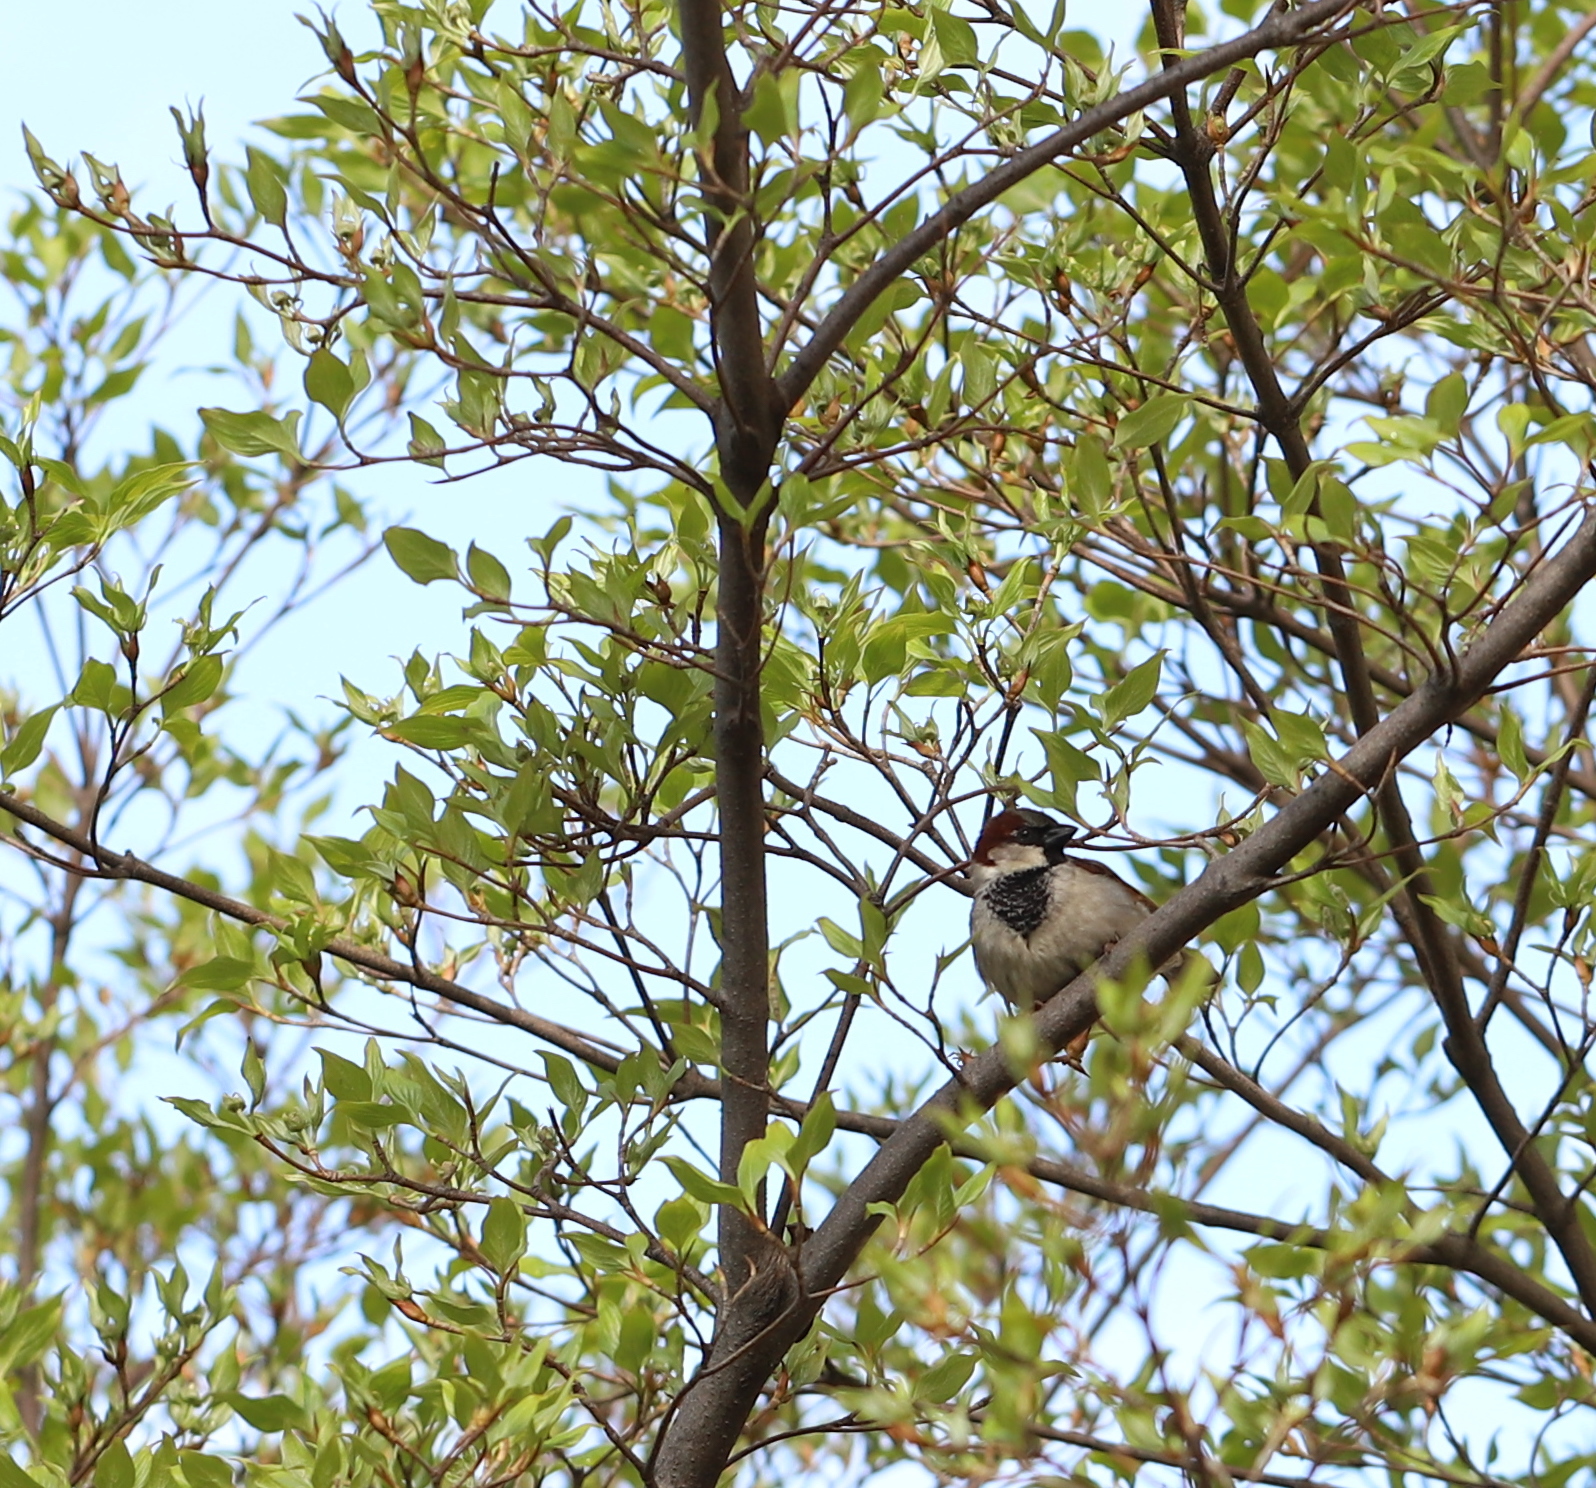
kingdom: Animalia
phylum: Chordata
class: Aves
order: Passeriformes
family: Passeridae
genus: Passer
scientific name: Passer domesticus
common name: House sparrow
